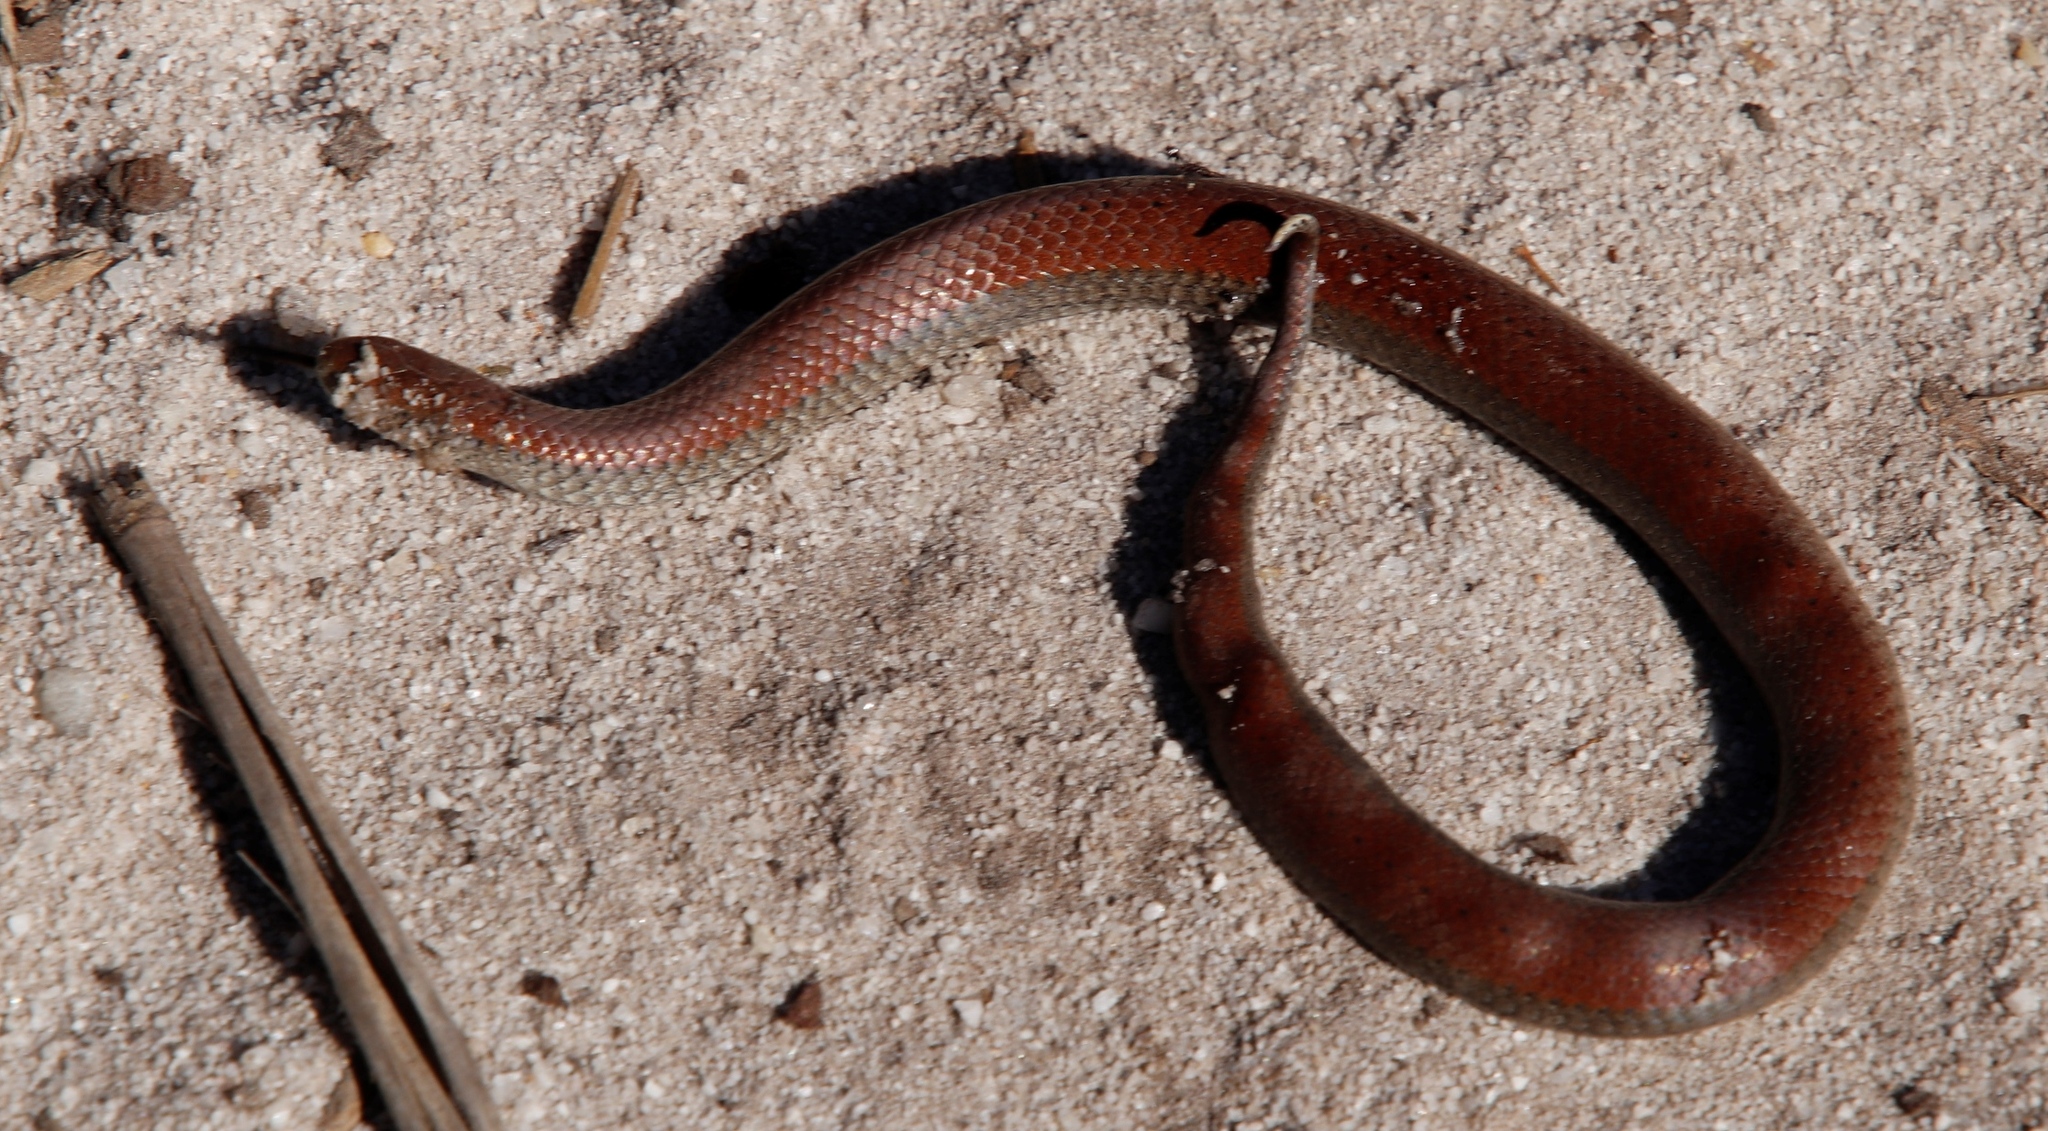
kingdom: Animalia
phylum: Chordata
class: Squamata
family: Pseudoxyrhophiidae
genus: Duberria
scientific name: Duberria lutrix
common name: Common slug eater
